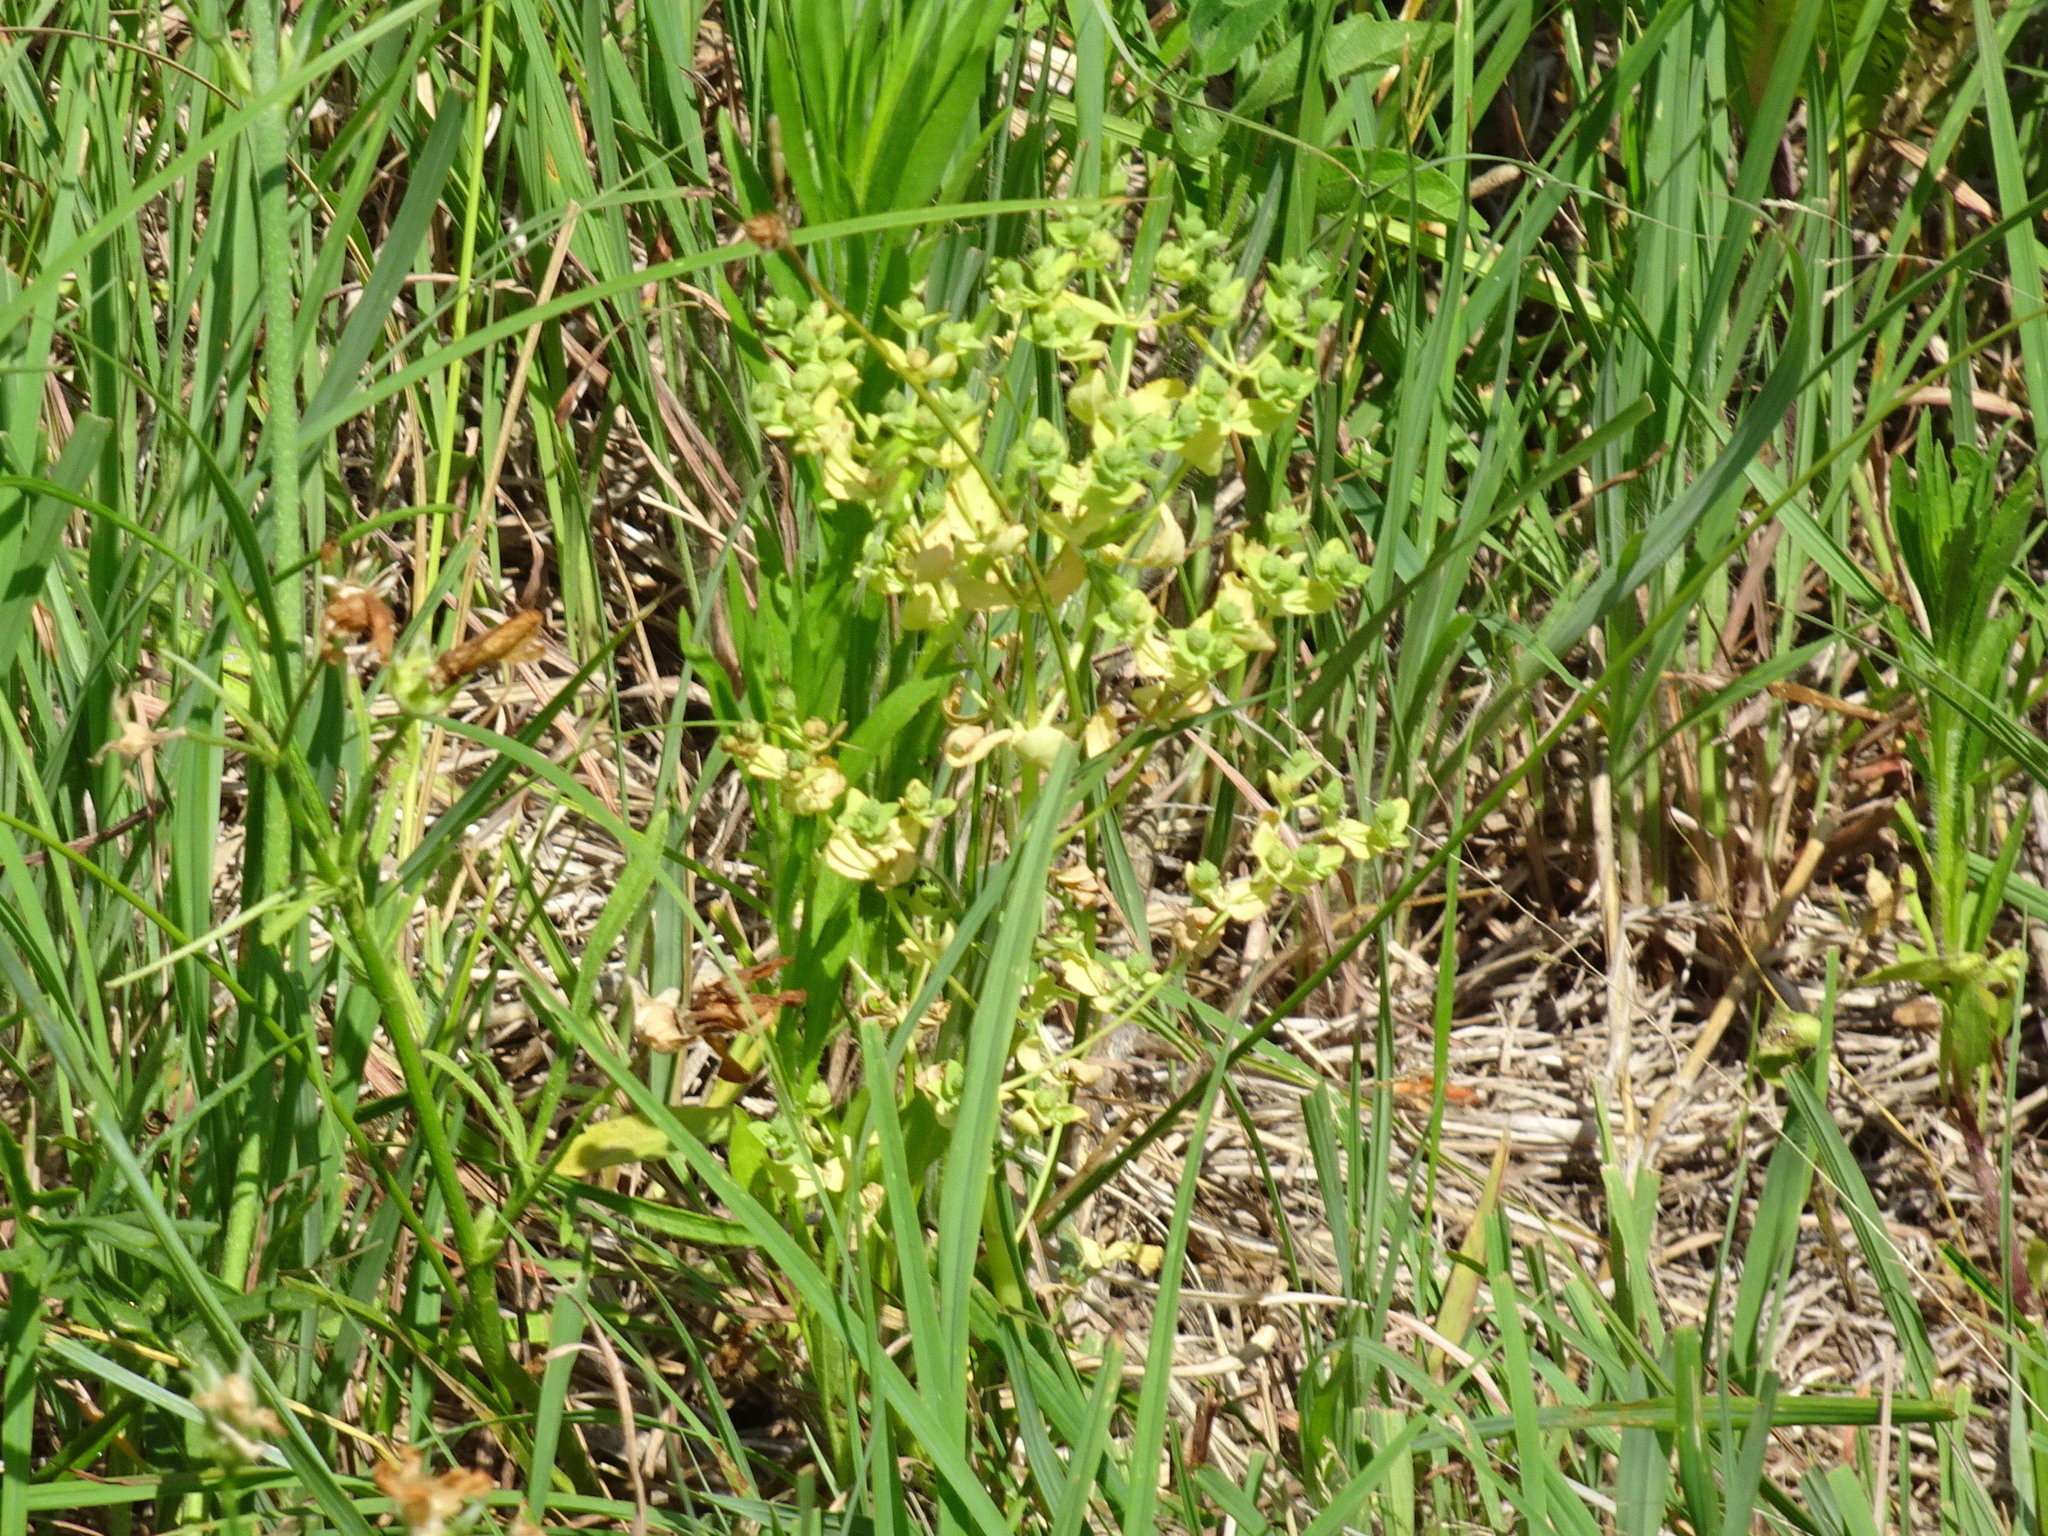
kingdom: Plantae
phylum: Tracheophyta
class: Magnoliopsida
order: Malpighiales
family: Euphorbiaceae
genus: Euphorbia
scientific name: Euphorbia spathulata
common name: Blunt spurge
